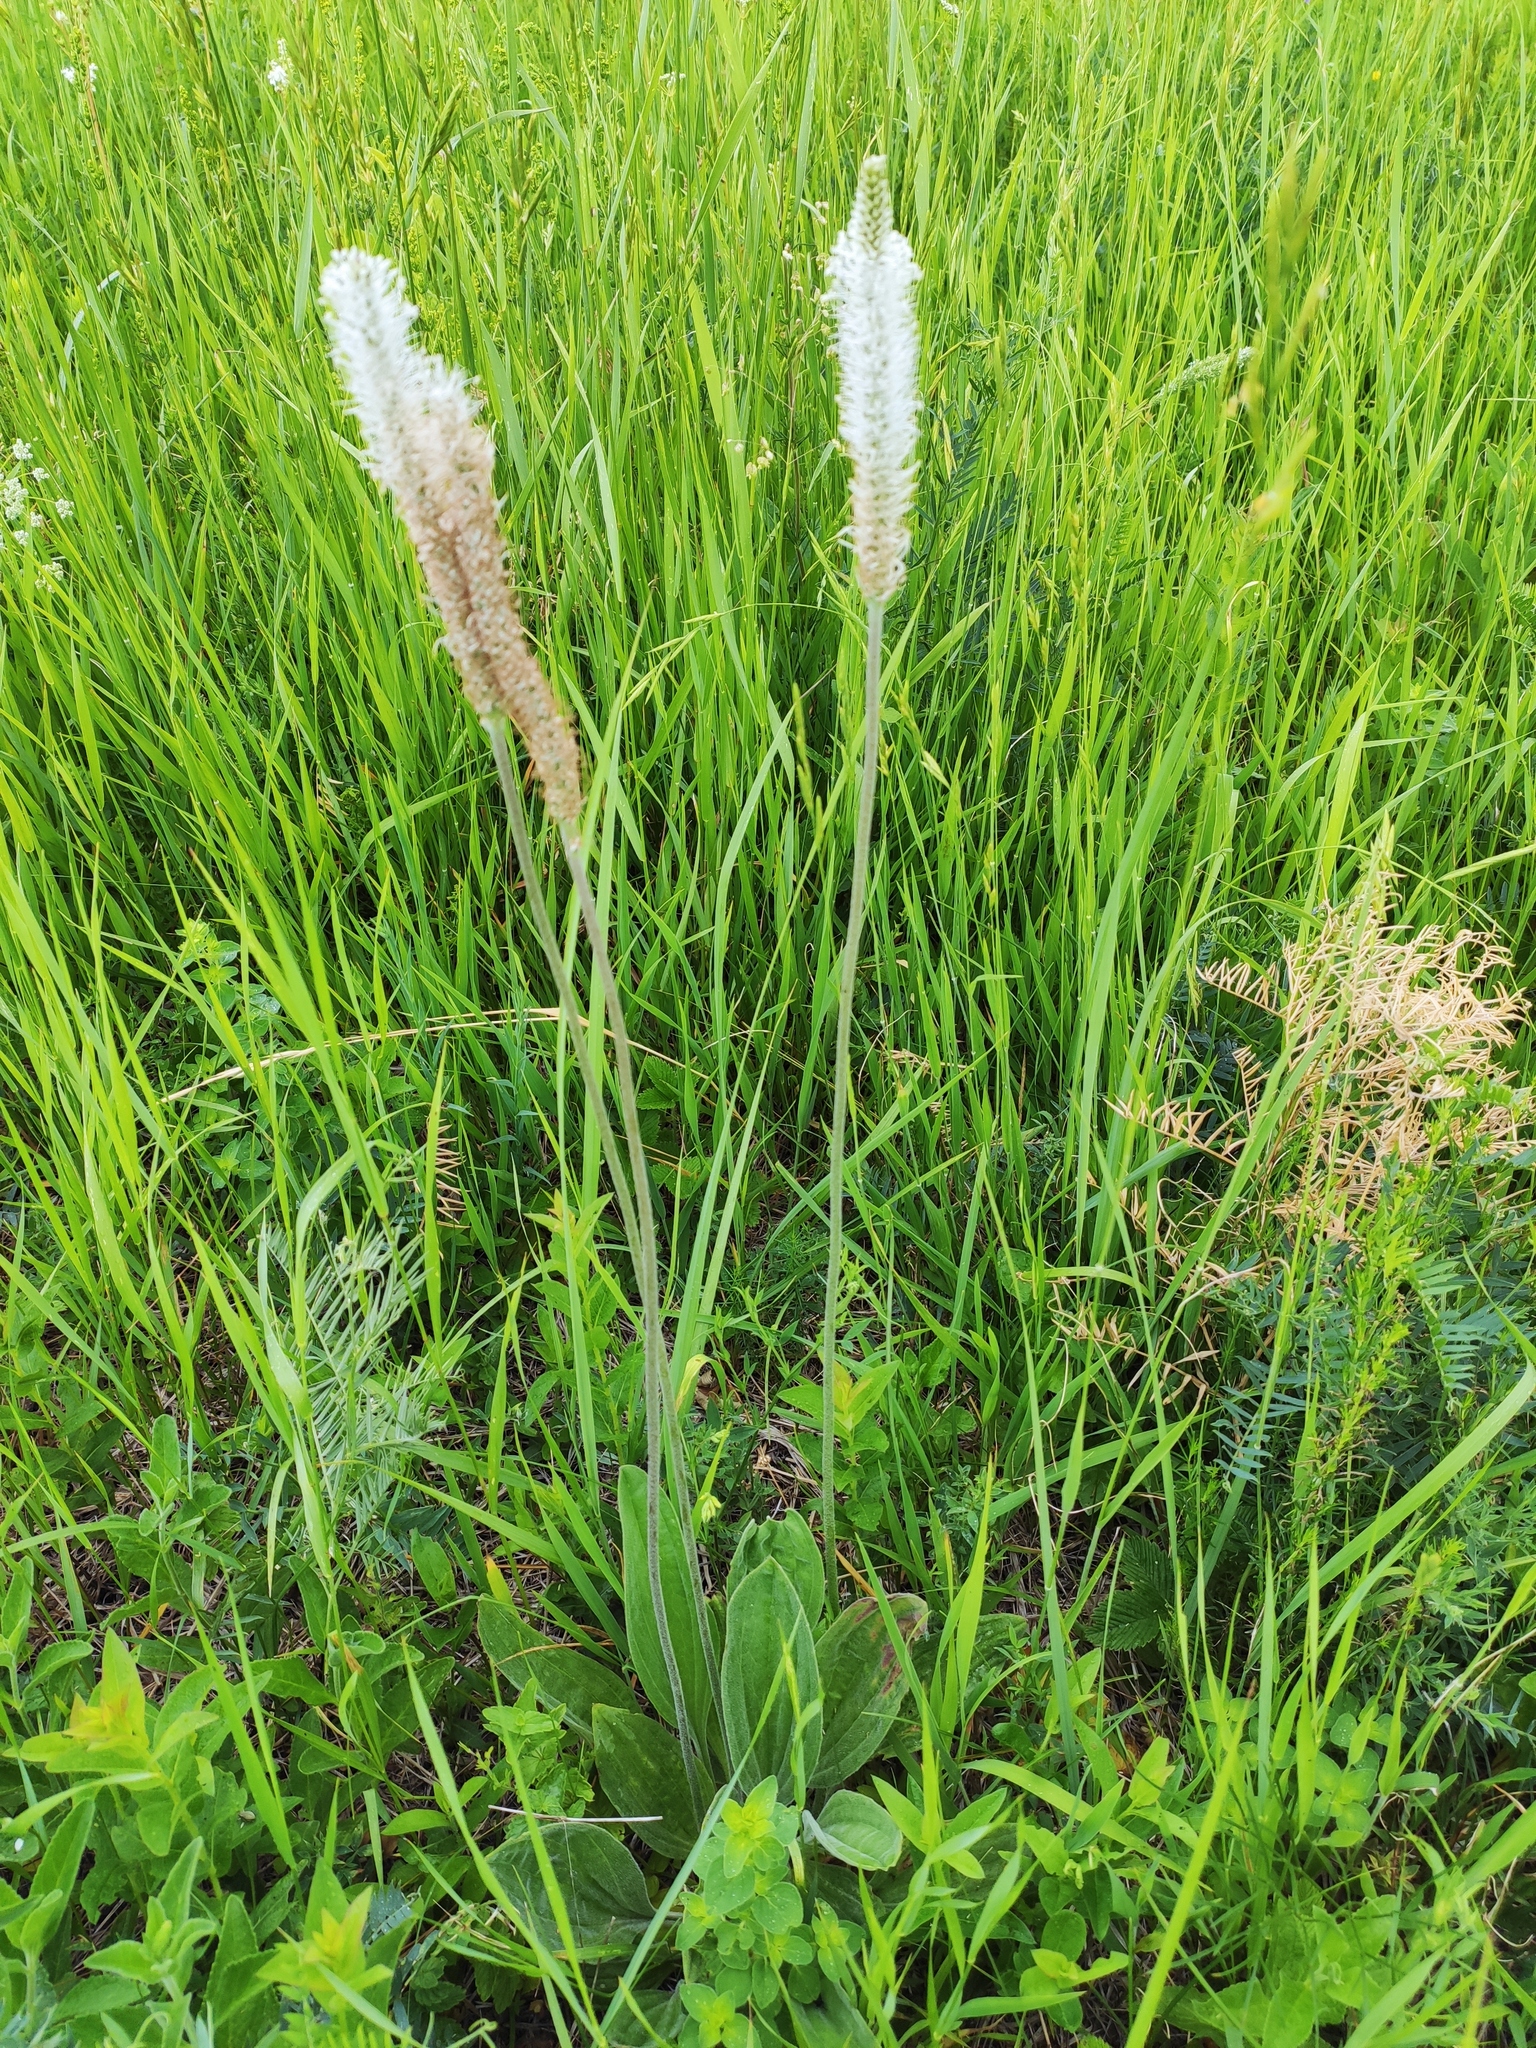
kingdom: Plantae
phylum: Tracheophyta
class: Magnoliopsida
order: Lamiales
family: Plantaginaceae
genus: Plantago
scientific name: Plantago media
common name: Hoary plantain
